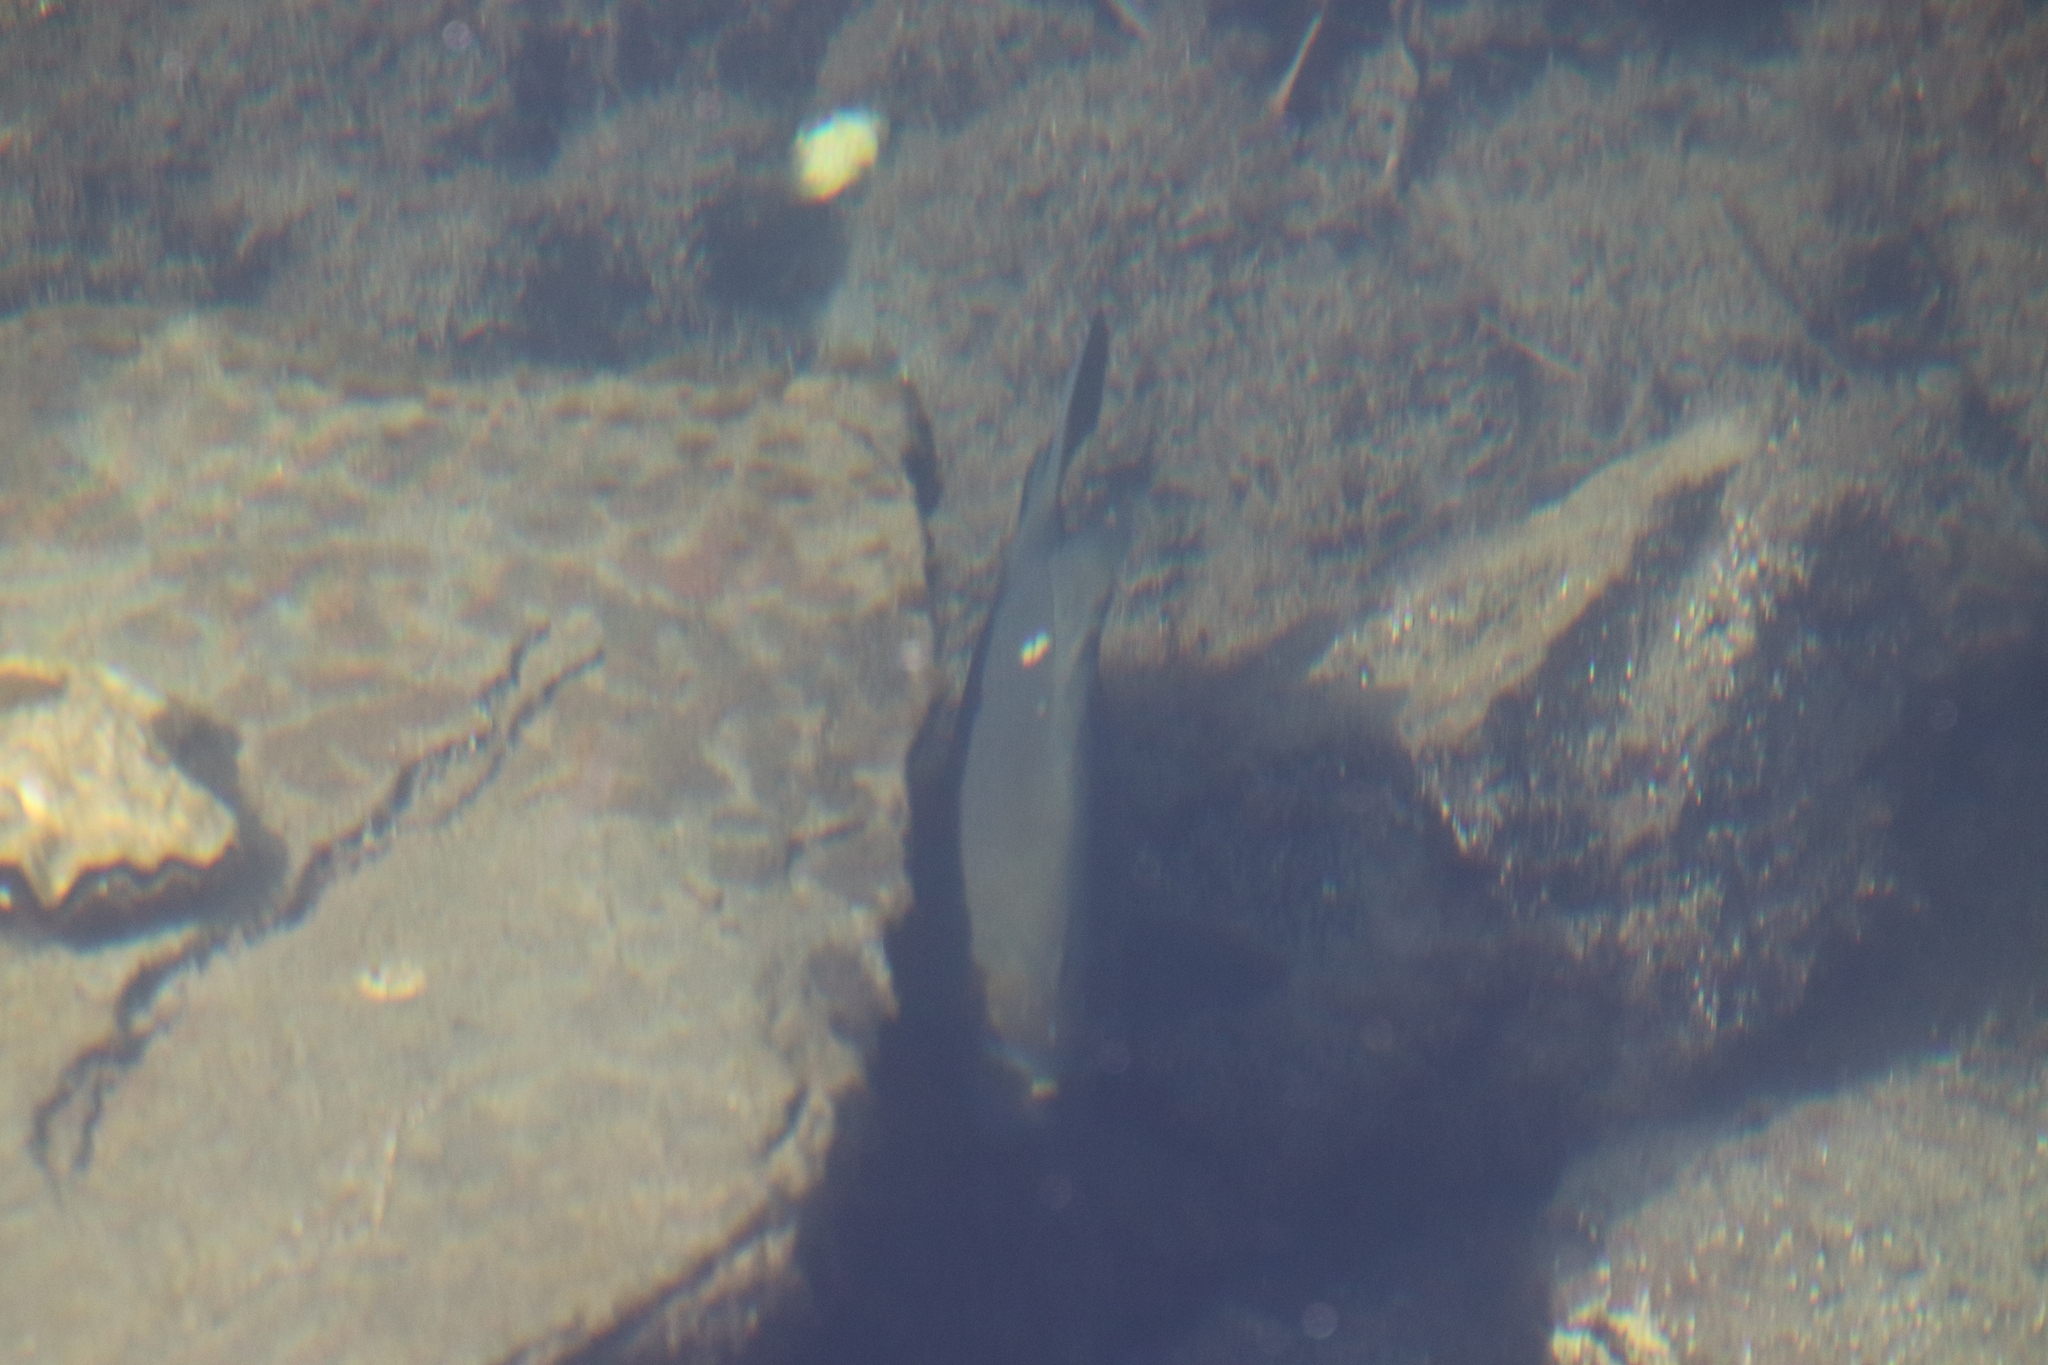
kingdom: Animalia
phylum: Chordata
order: Perciformes
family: Kyphosidae
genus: Girella
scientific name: Girella nigricans
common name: Opaleye
